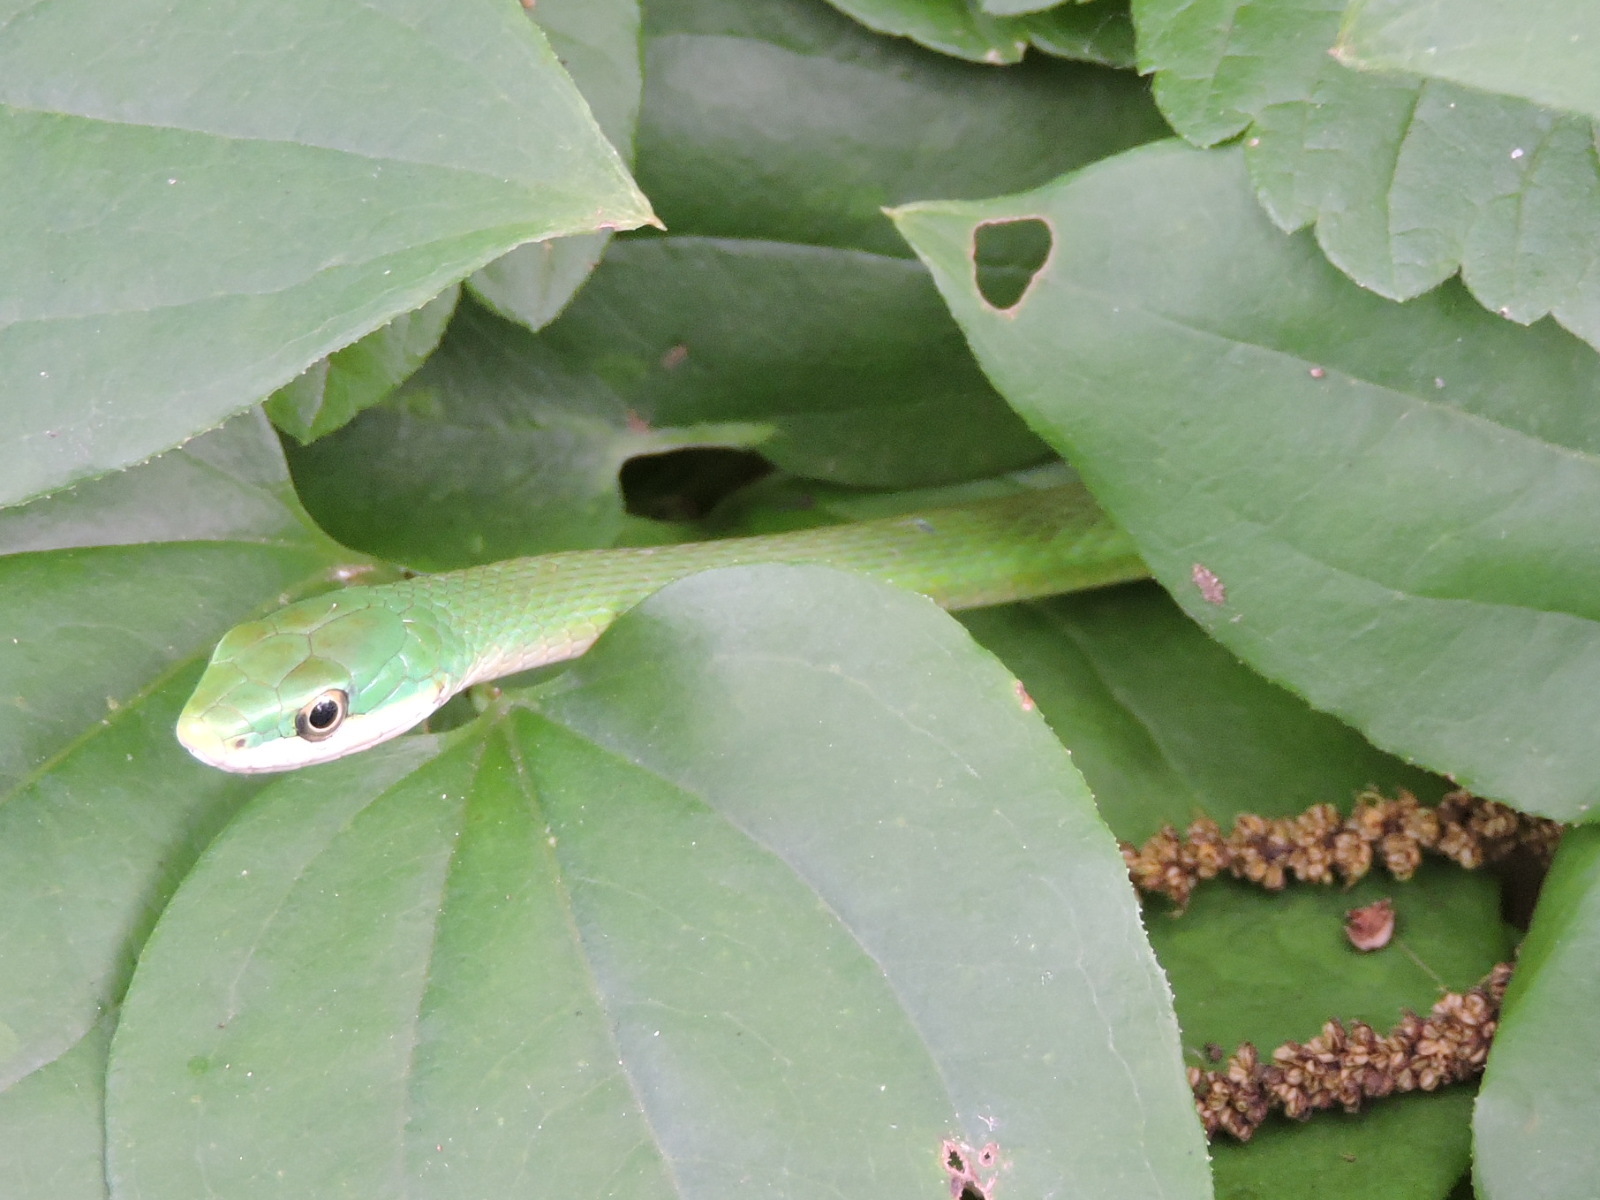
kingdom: Animalia
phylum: Chordata
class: Squamata
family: Colubridae
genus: Opheodrys
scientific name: Opheodrys aestivus
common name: Rough greensnake
